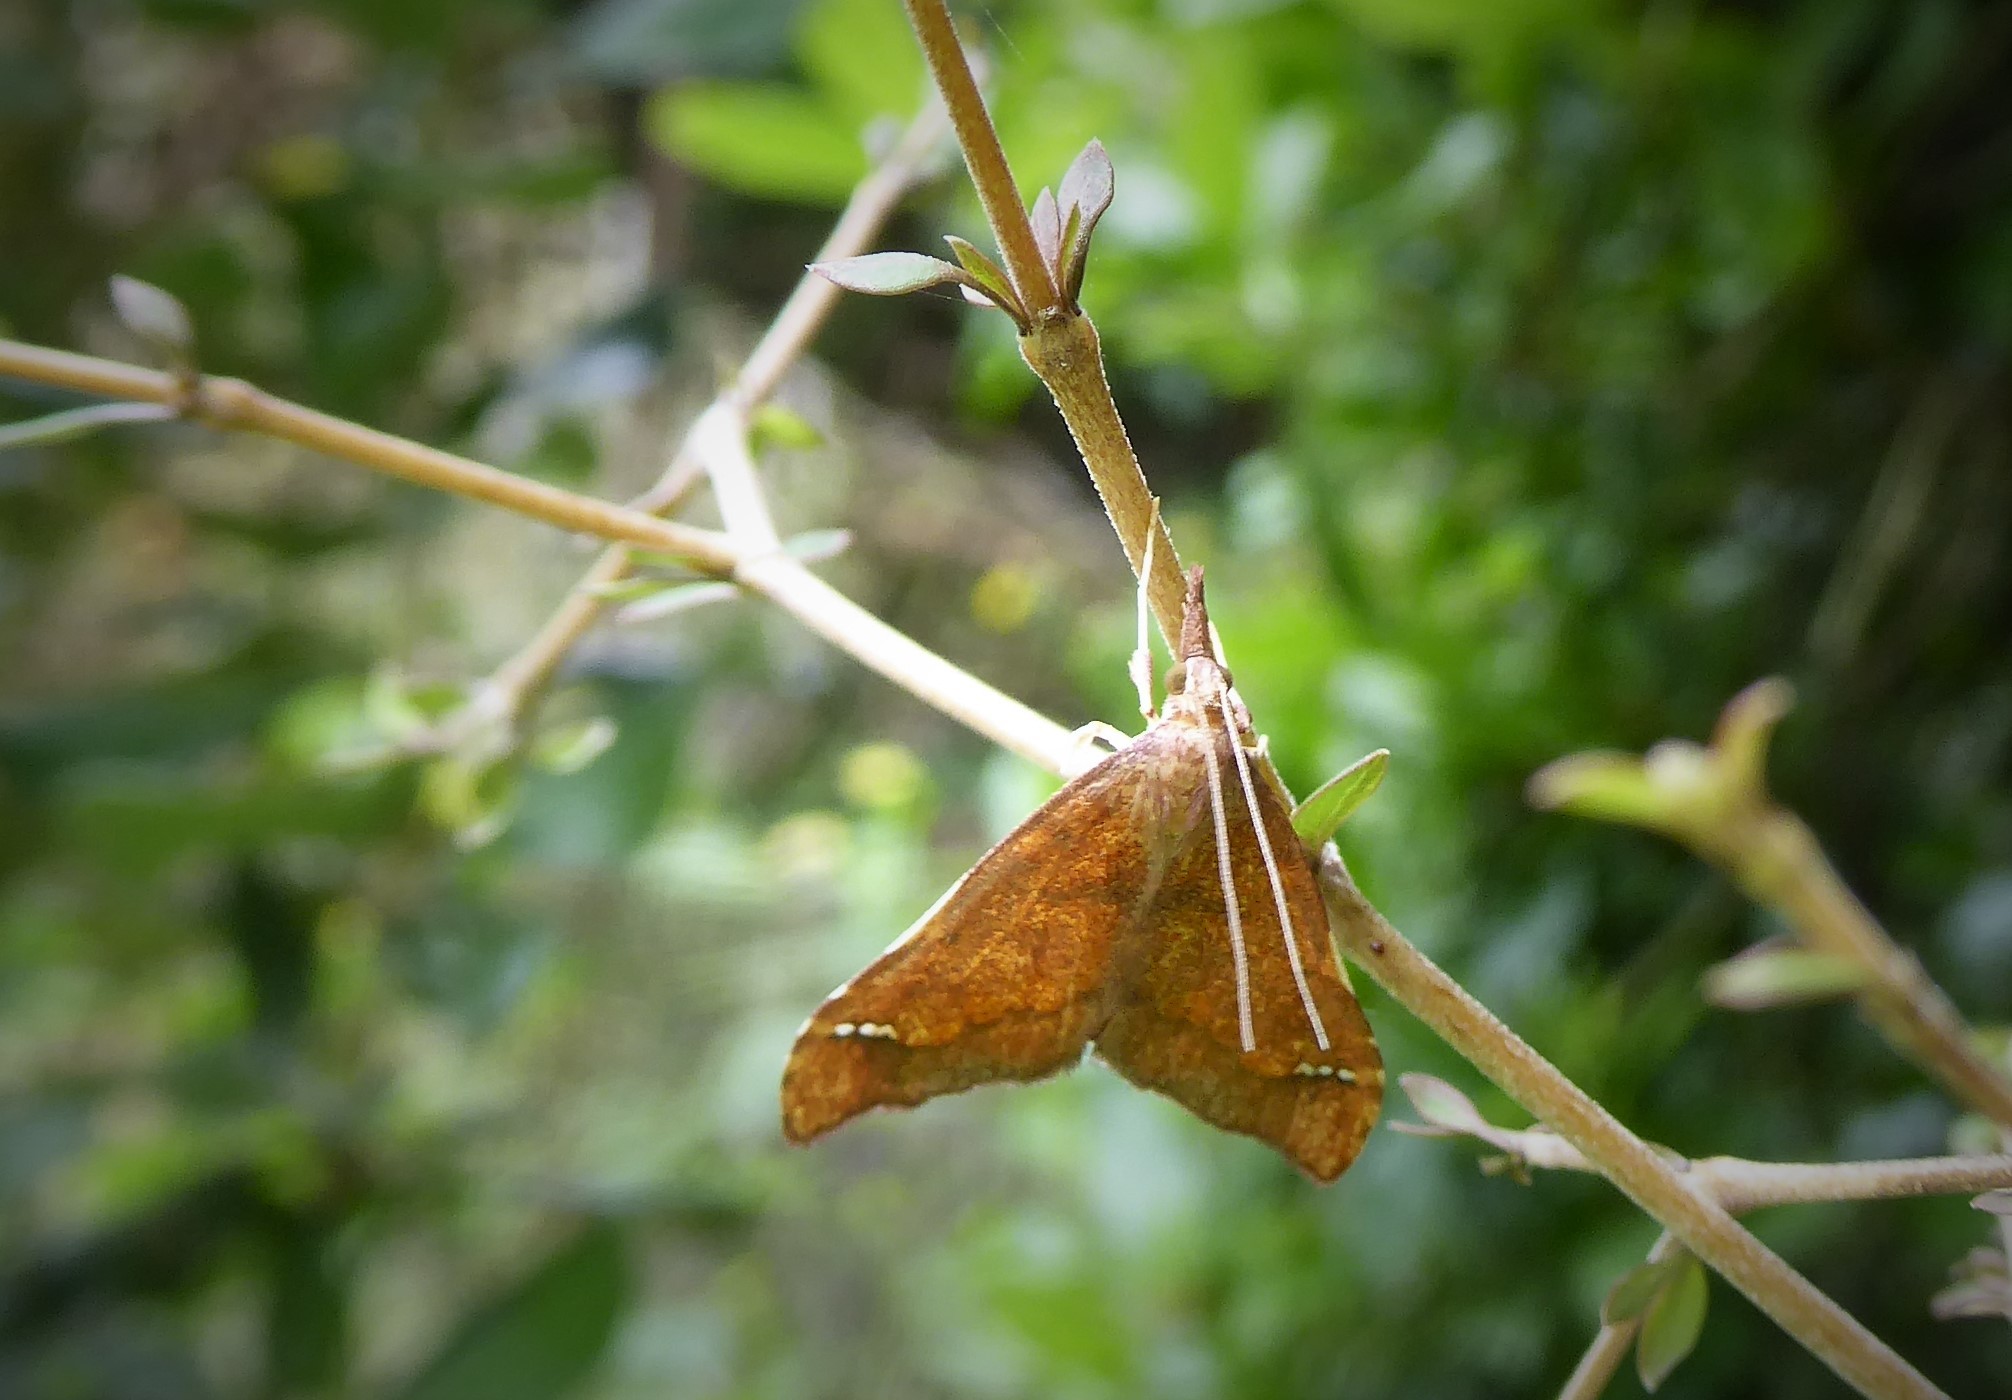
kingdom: Animalia
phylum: Arthropoda
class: Insecta
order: Lepidoptera
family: Crambidae
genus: Deana
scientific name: Deana hybreasalis
